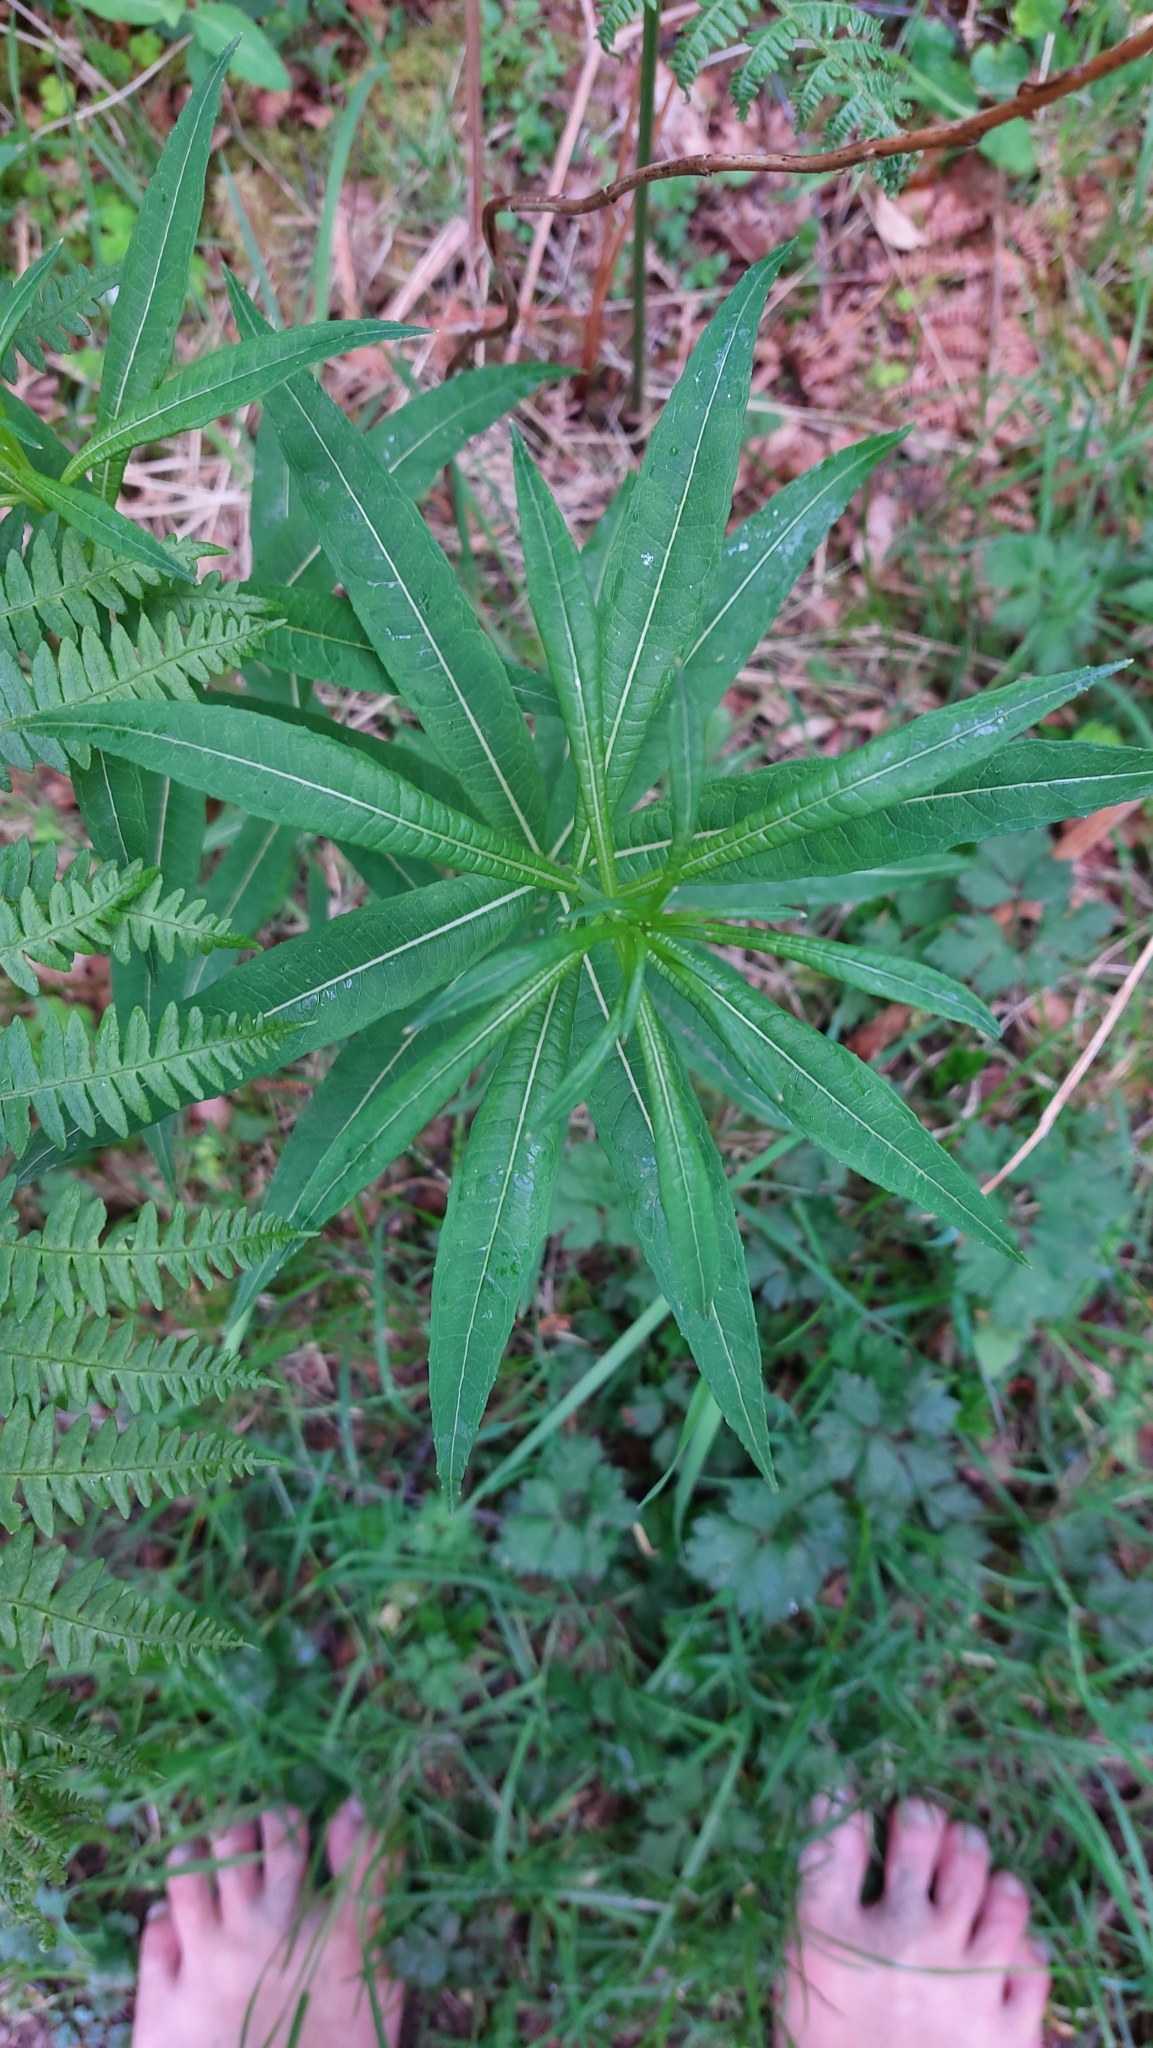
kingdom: Plantae
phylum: Tracheophyta
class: Magnoliopsida
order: Myrtales
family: Onagraceae
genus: Chamaenerion
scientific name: Chamaenerion angustifolium
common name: Fireweed
